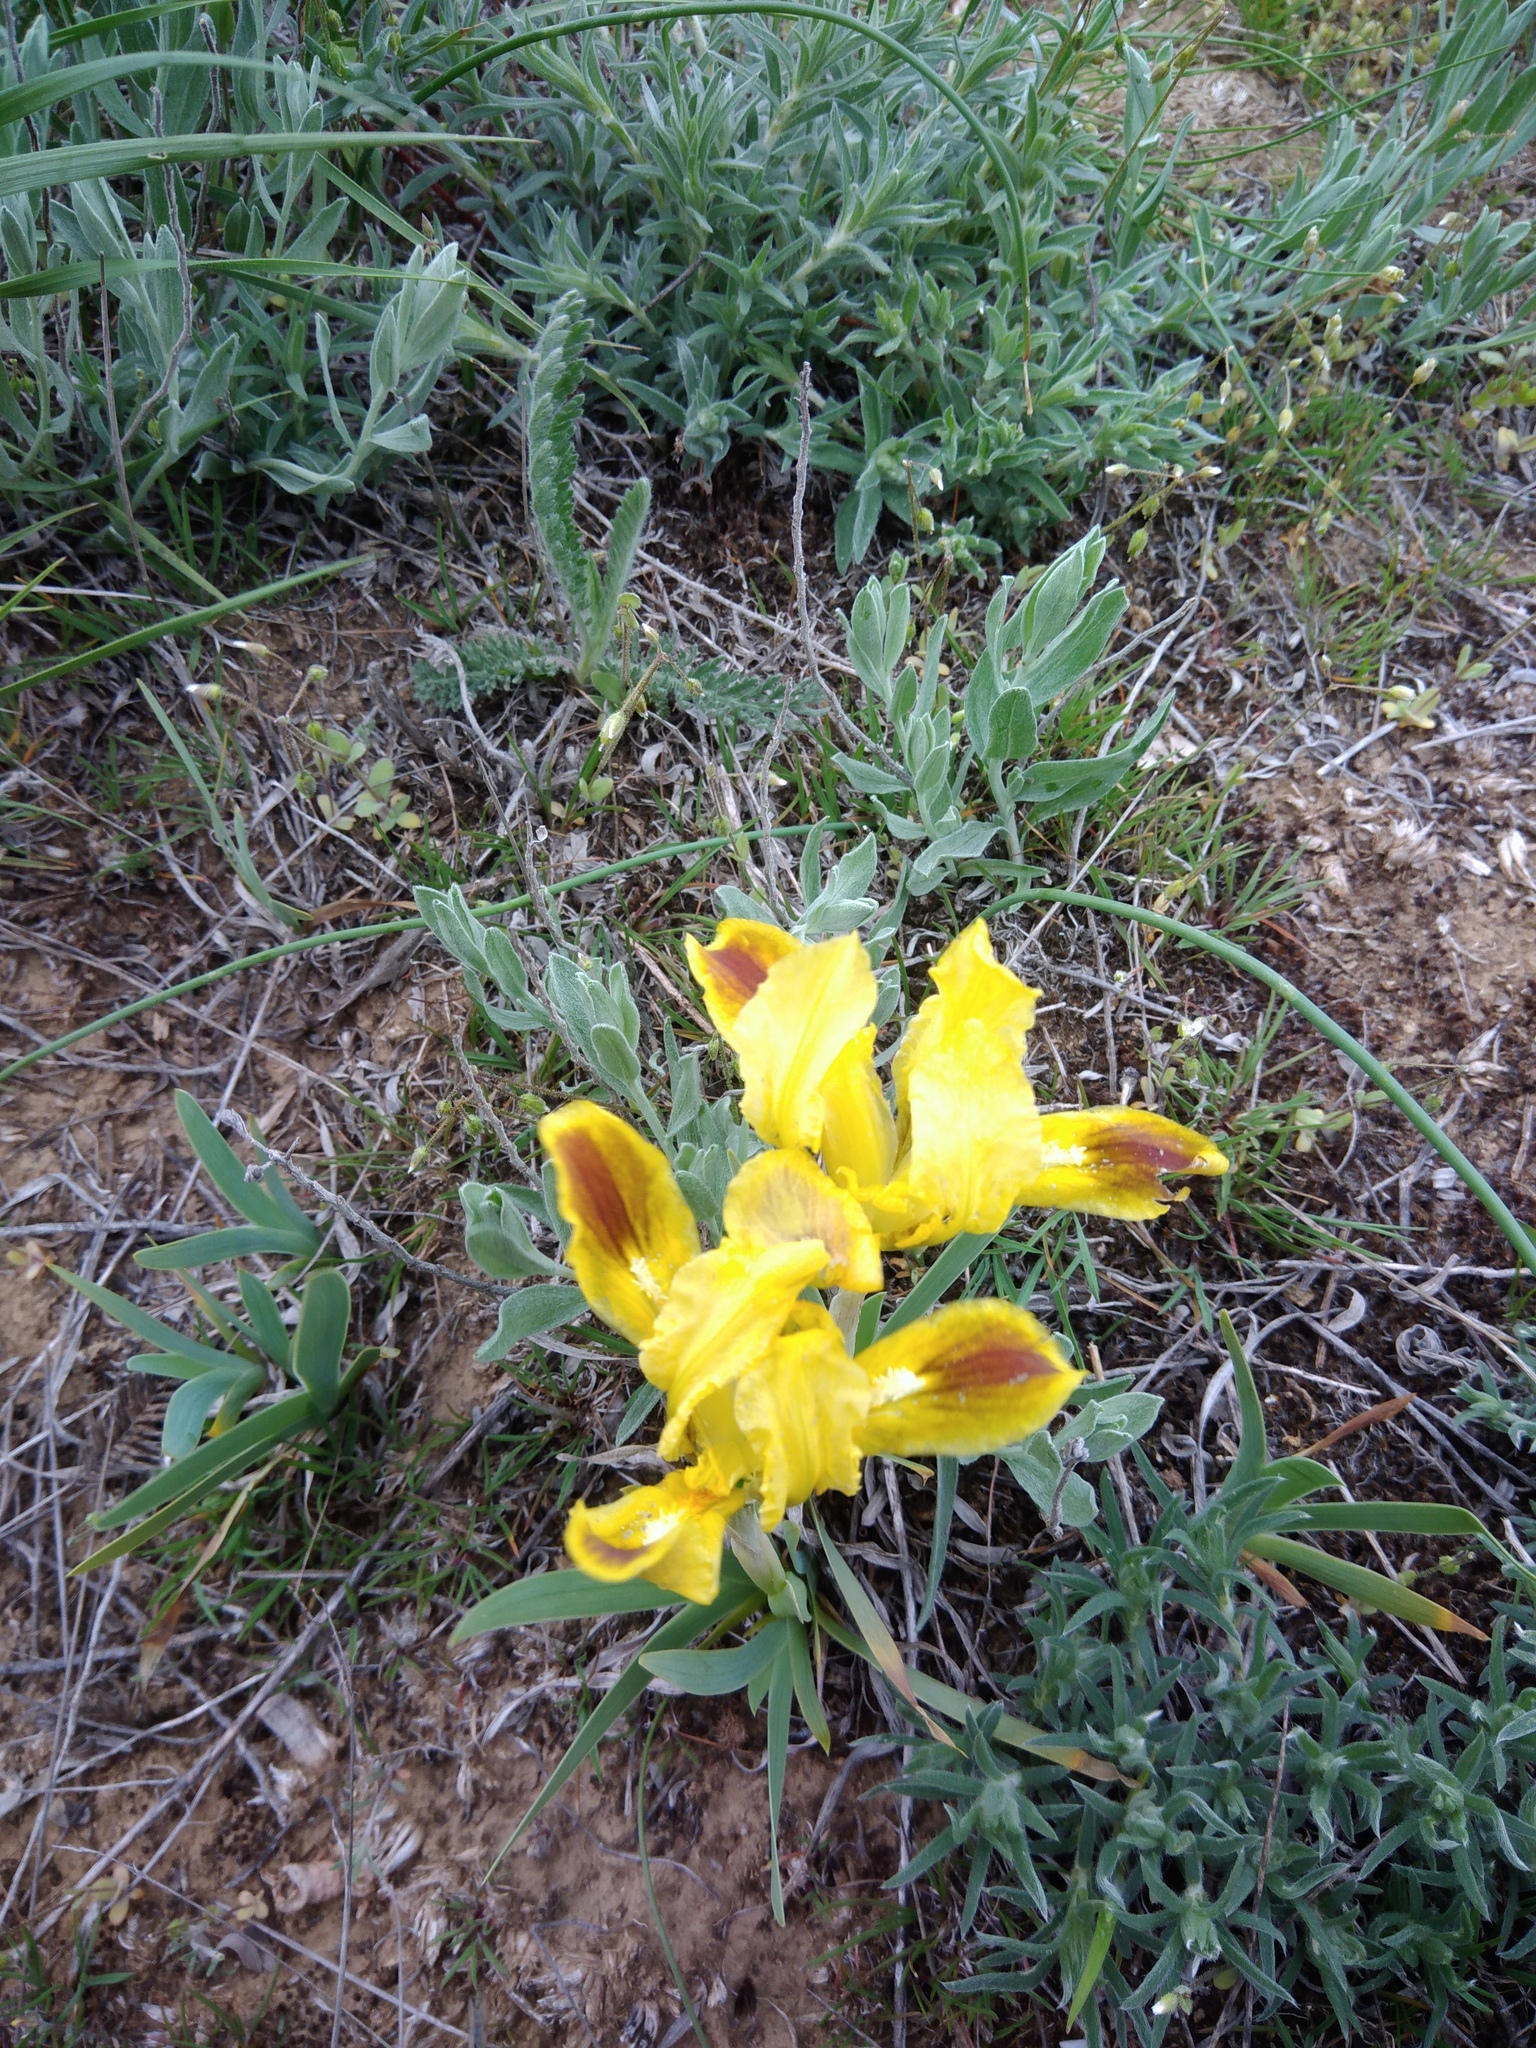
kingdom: Plantae
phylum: Tracheophyta
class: Liliopsida
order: Asparagales
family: Iridaceae
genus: Iris
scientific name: Iris pumila
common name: Dwarf iris
